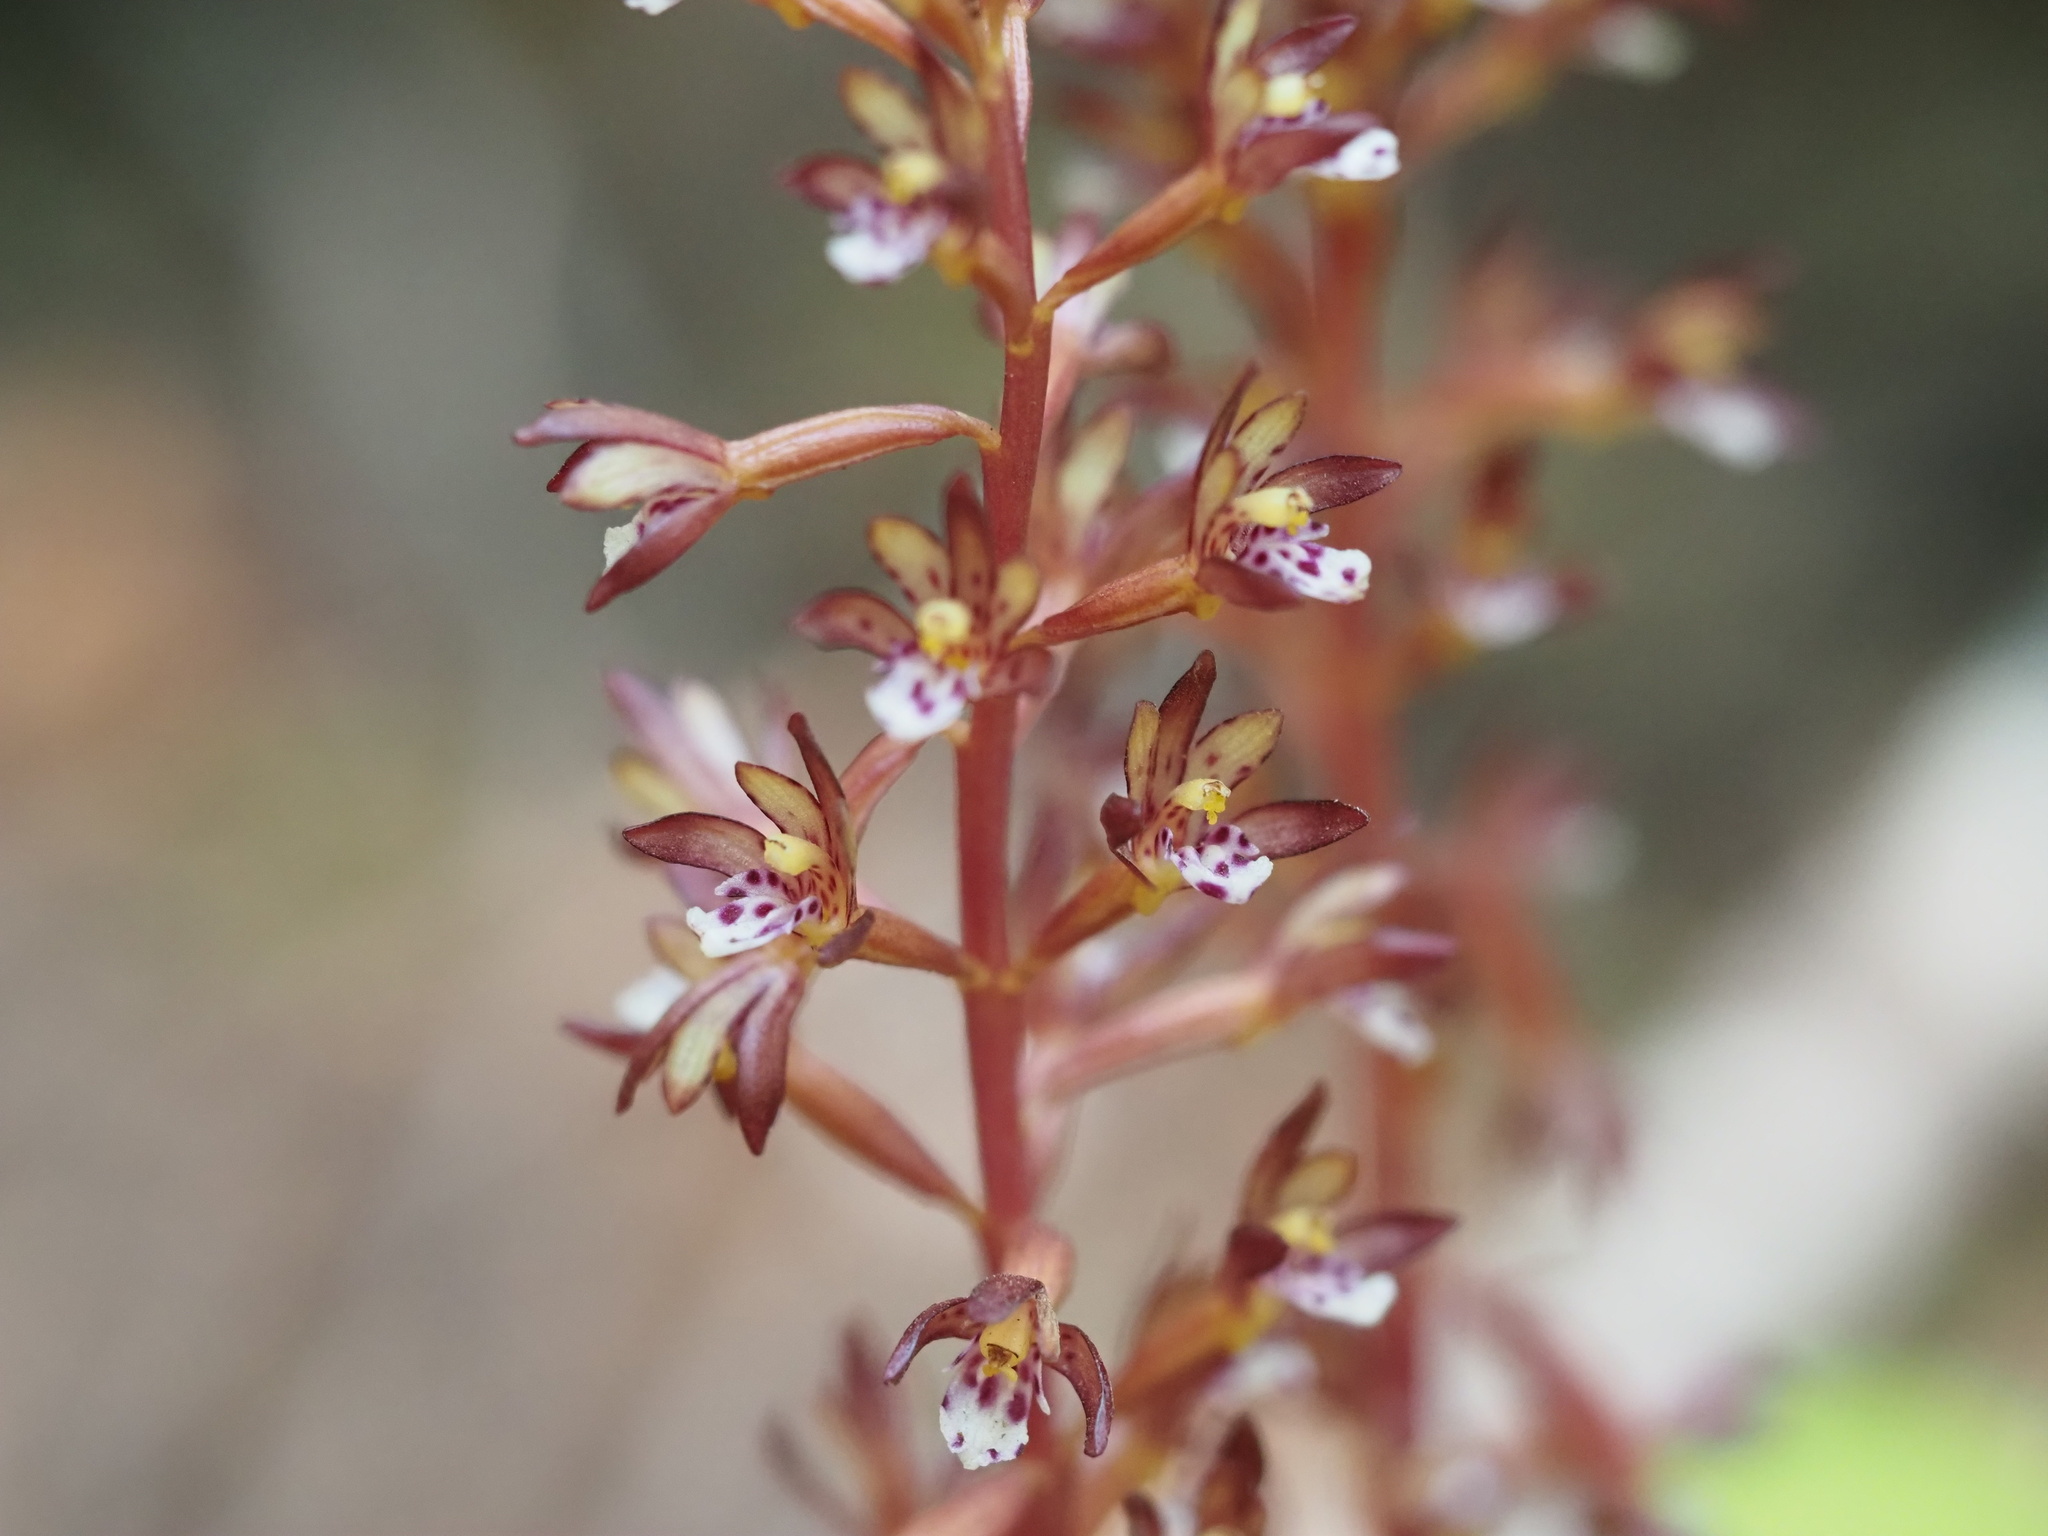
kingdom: Plantae
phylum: Tracheophyta
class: Liliopsida
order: Asparagales
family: Orchidaceae
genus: Corallorhiza
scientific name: Corallorhiza maculata
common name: Spotted coralroot
